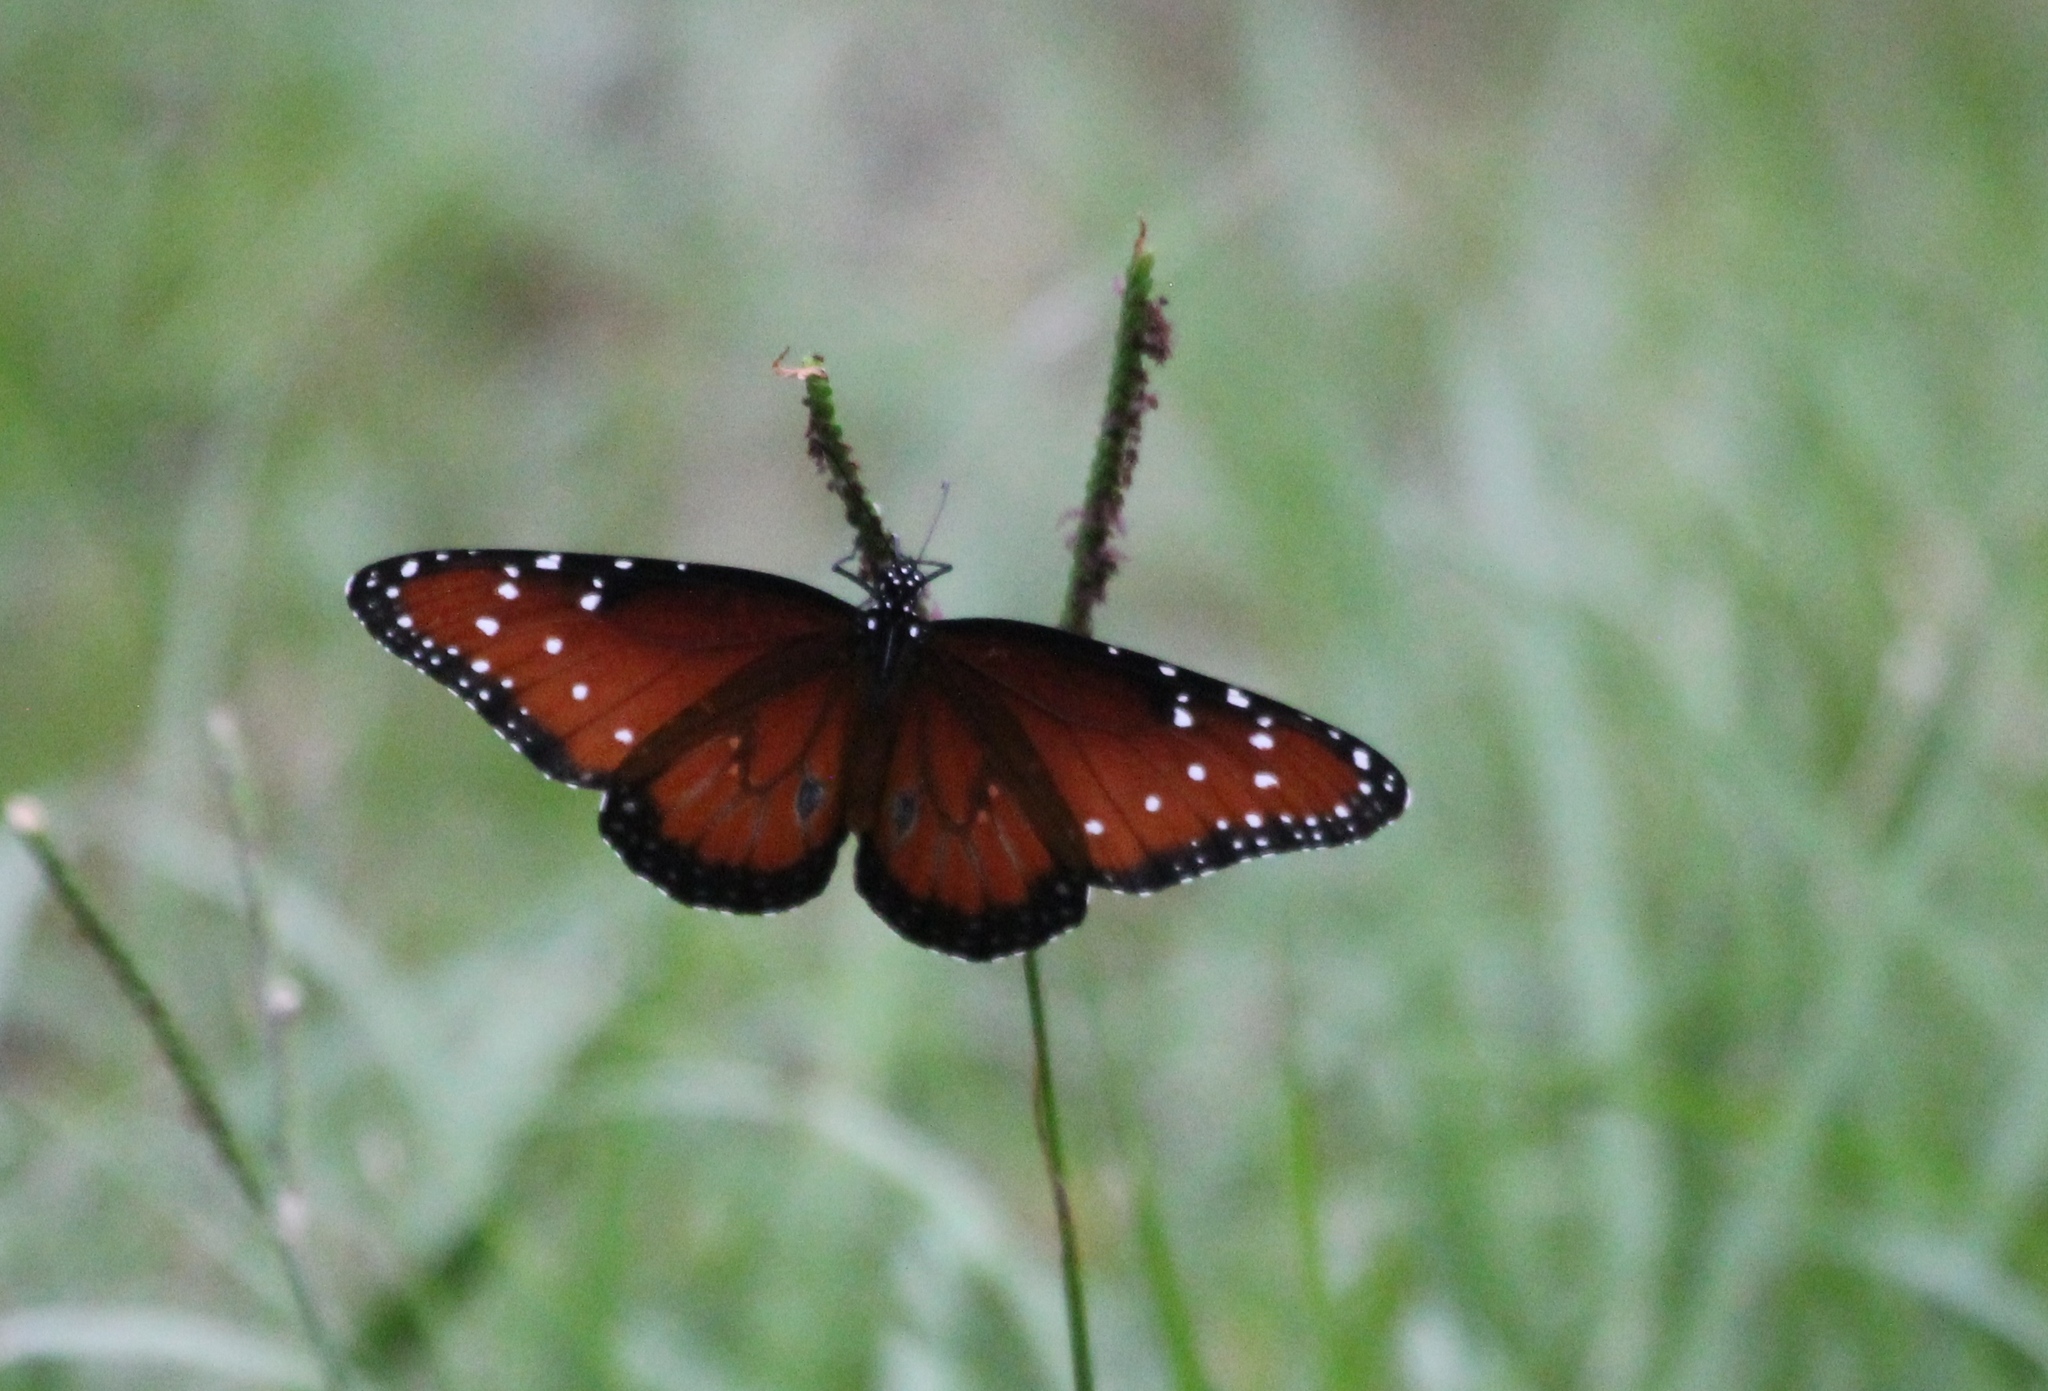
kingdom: Animalia
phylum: Arthropoda
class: Insecta
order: Lepidoptera
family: Nymphalidae
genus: Danaus
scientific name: Danaus gilippus
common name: Queen
